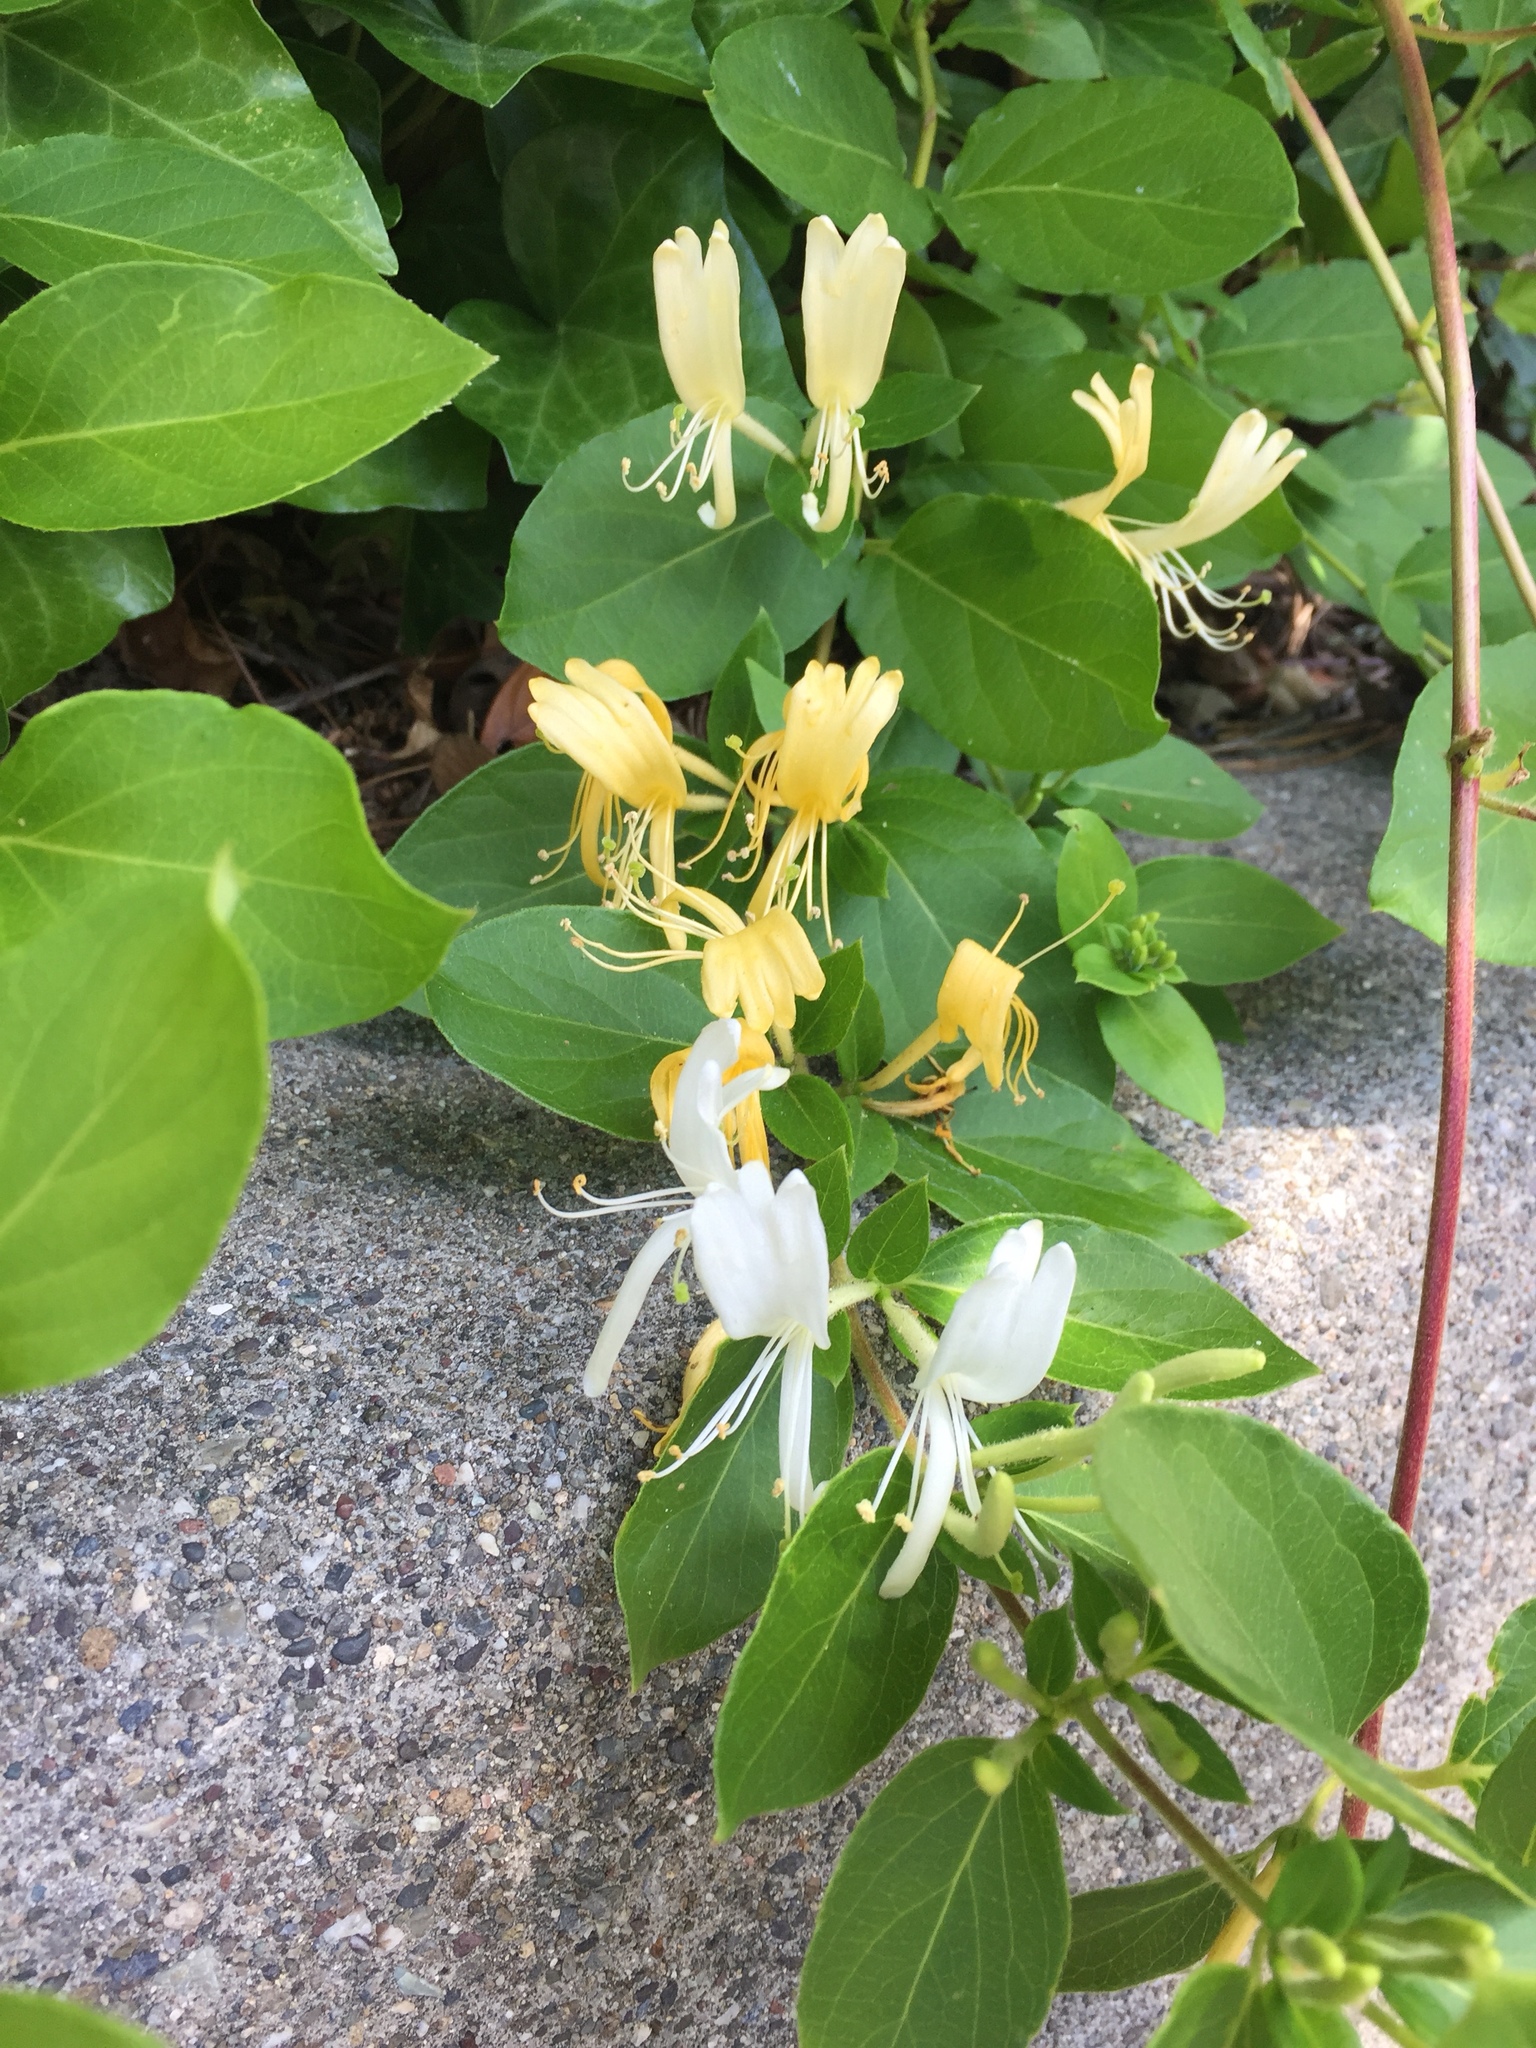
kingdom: Plantae
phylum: Tracheophyta
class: Magnoliopsida
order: Dipsacales
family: Caprifoliaceae
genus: Lonicera
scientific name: Lonicera japonica
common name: Japanese honeysuckle
